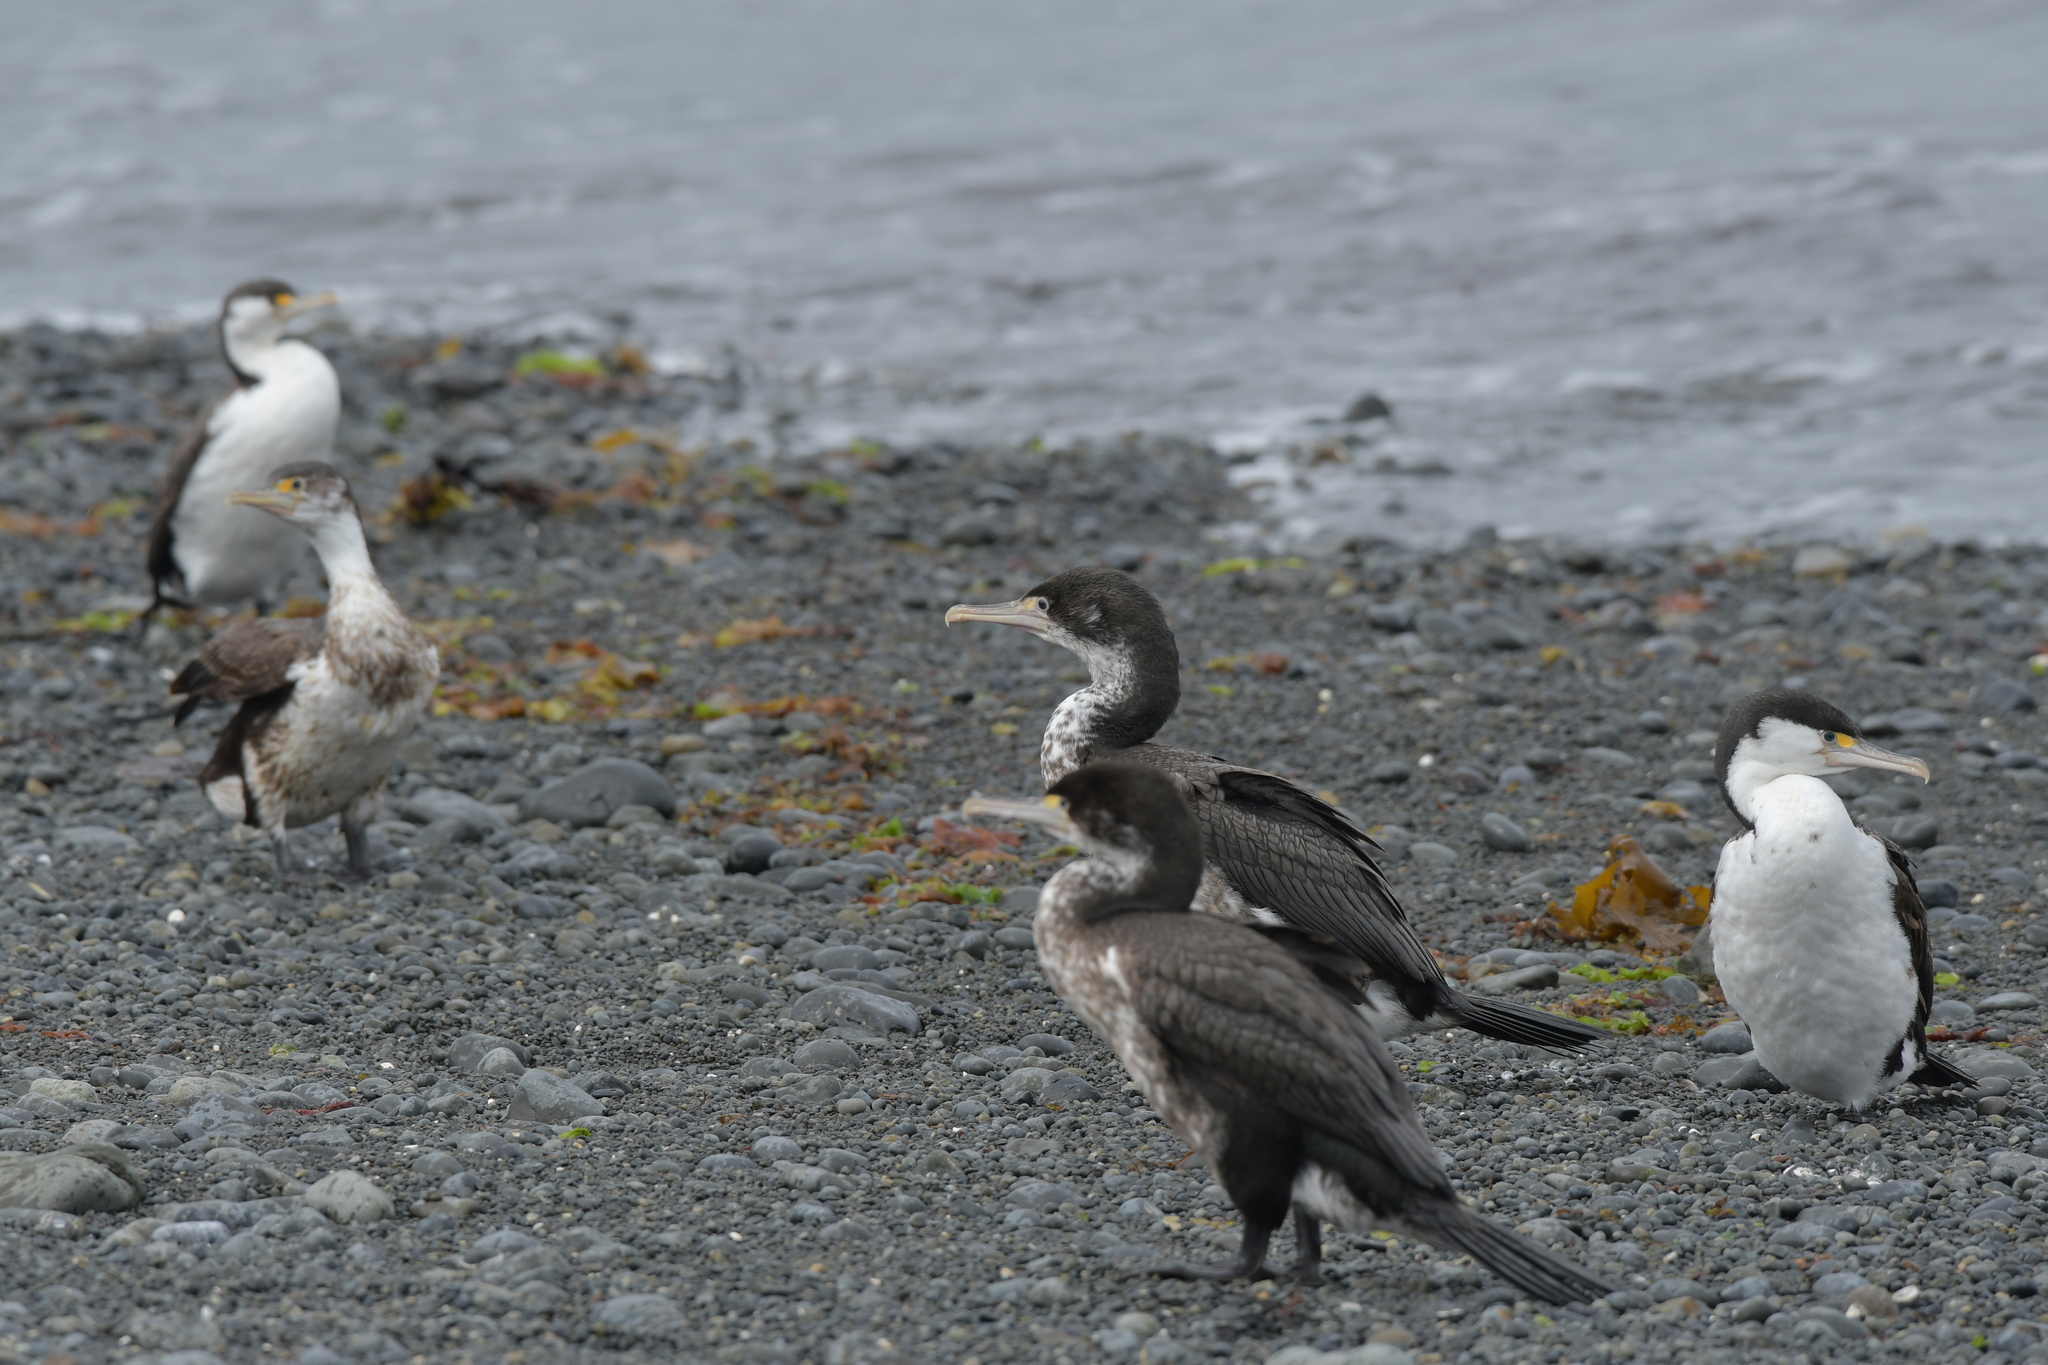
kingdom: Animalia
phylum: Chordata
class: Aves
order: Suliformes
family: Phalacrocoracidae
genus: Phalacrocorax
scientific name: Phalacrocorax varius
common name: Pied cormorant
